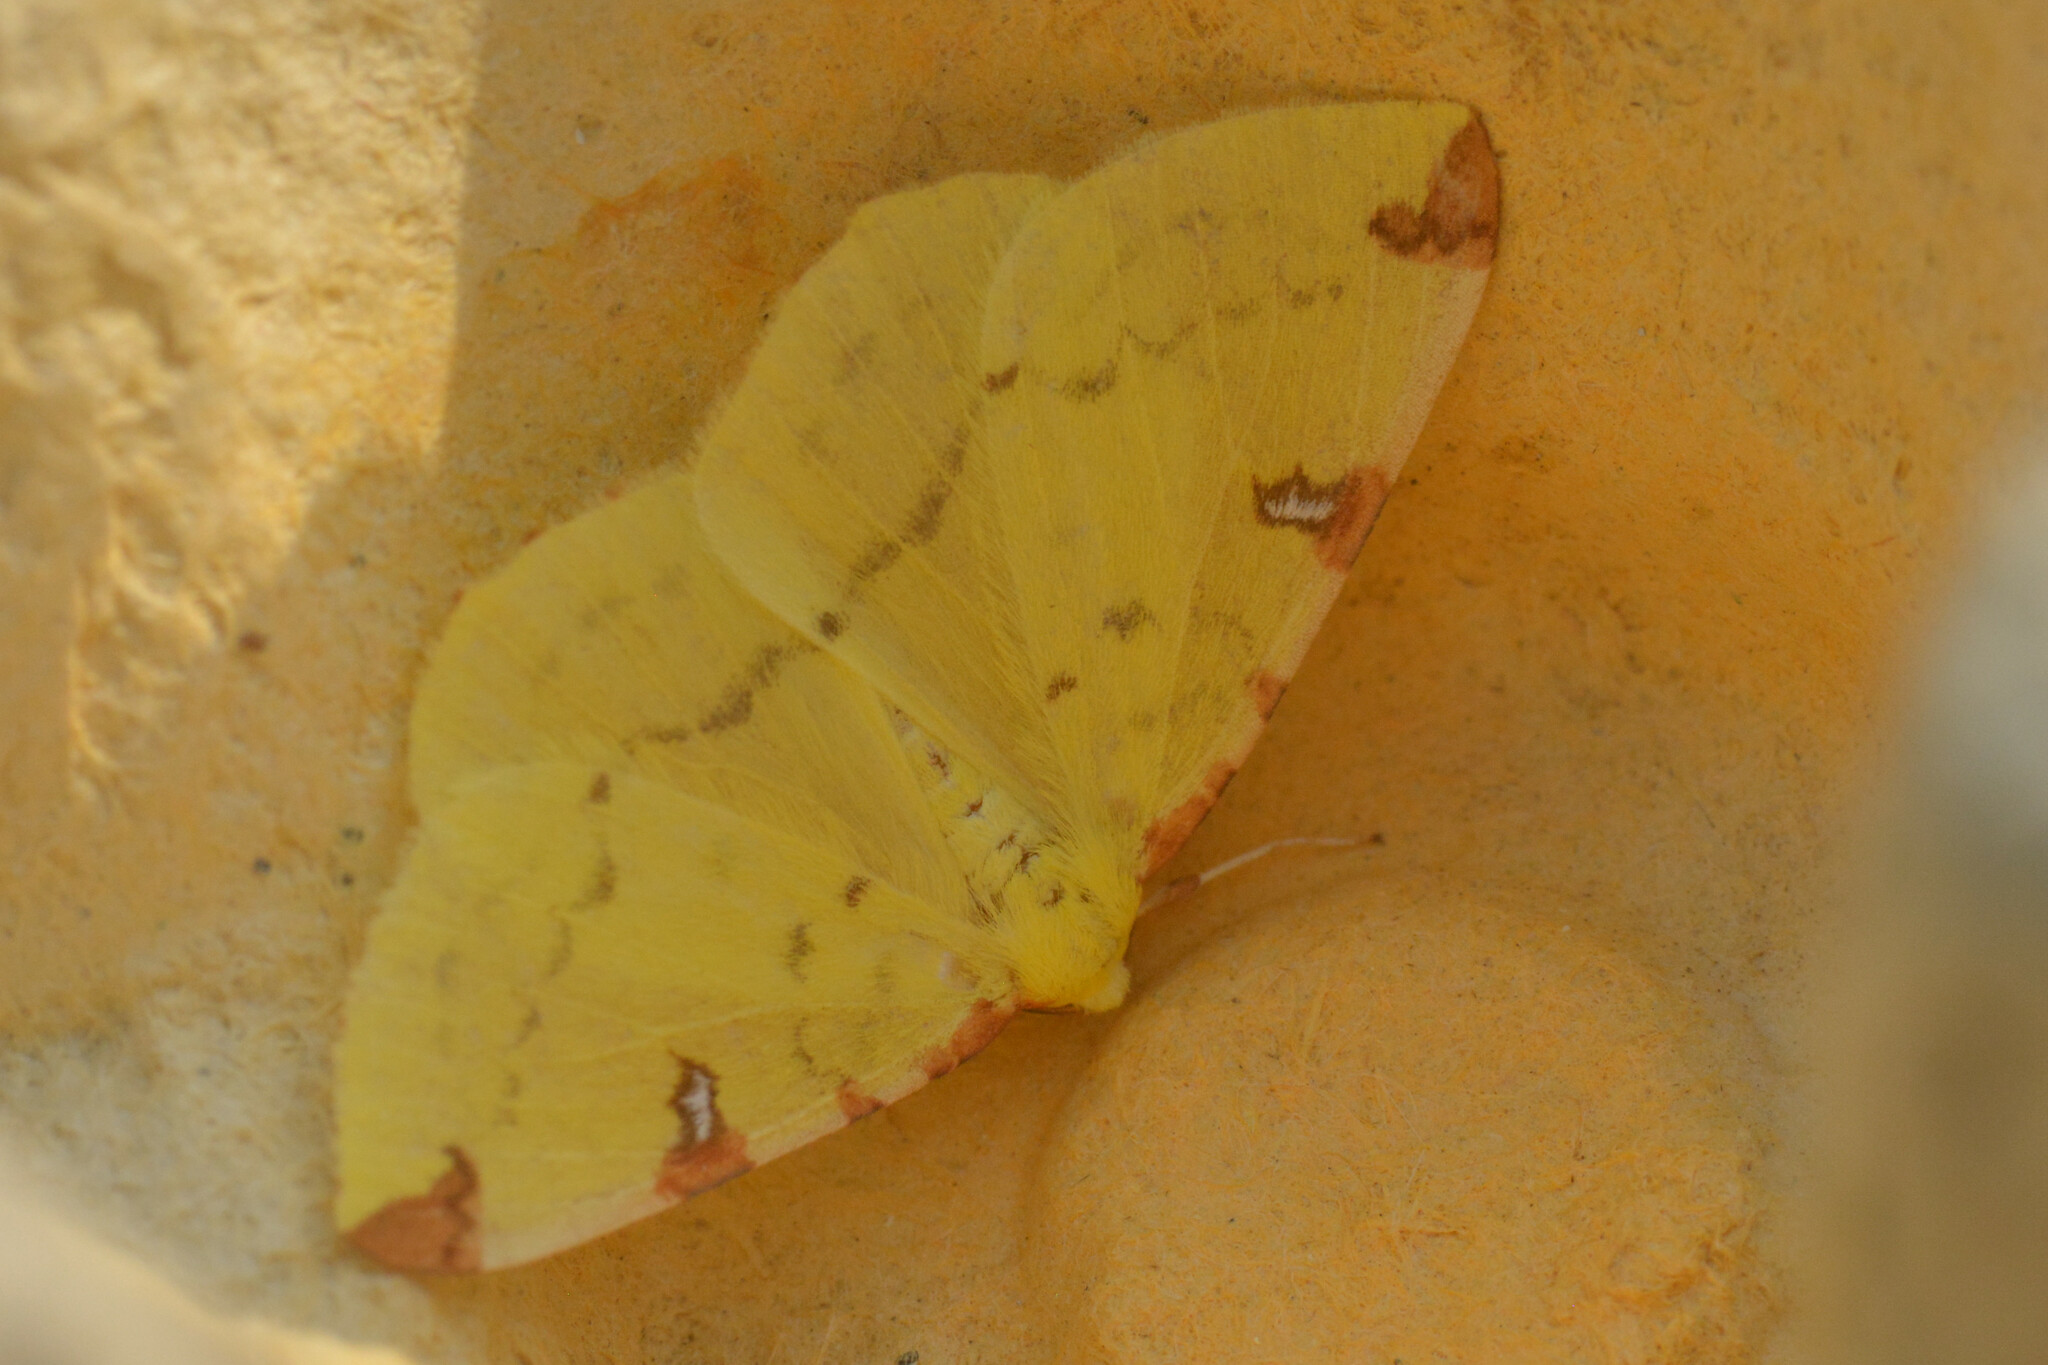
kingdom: Animalia
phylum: Arthropoda
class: Insecta
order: Lepidoptera
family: Geometridae
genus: Opisthograptis
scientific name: Opisthograptis luteolata
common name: Brimstone moth
